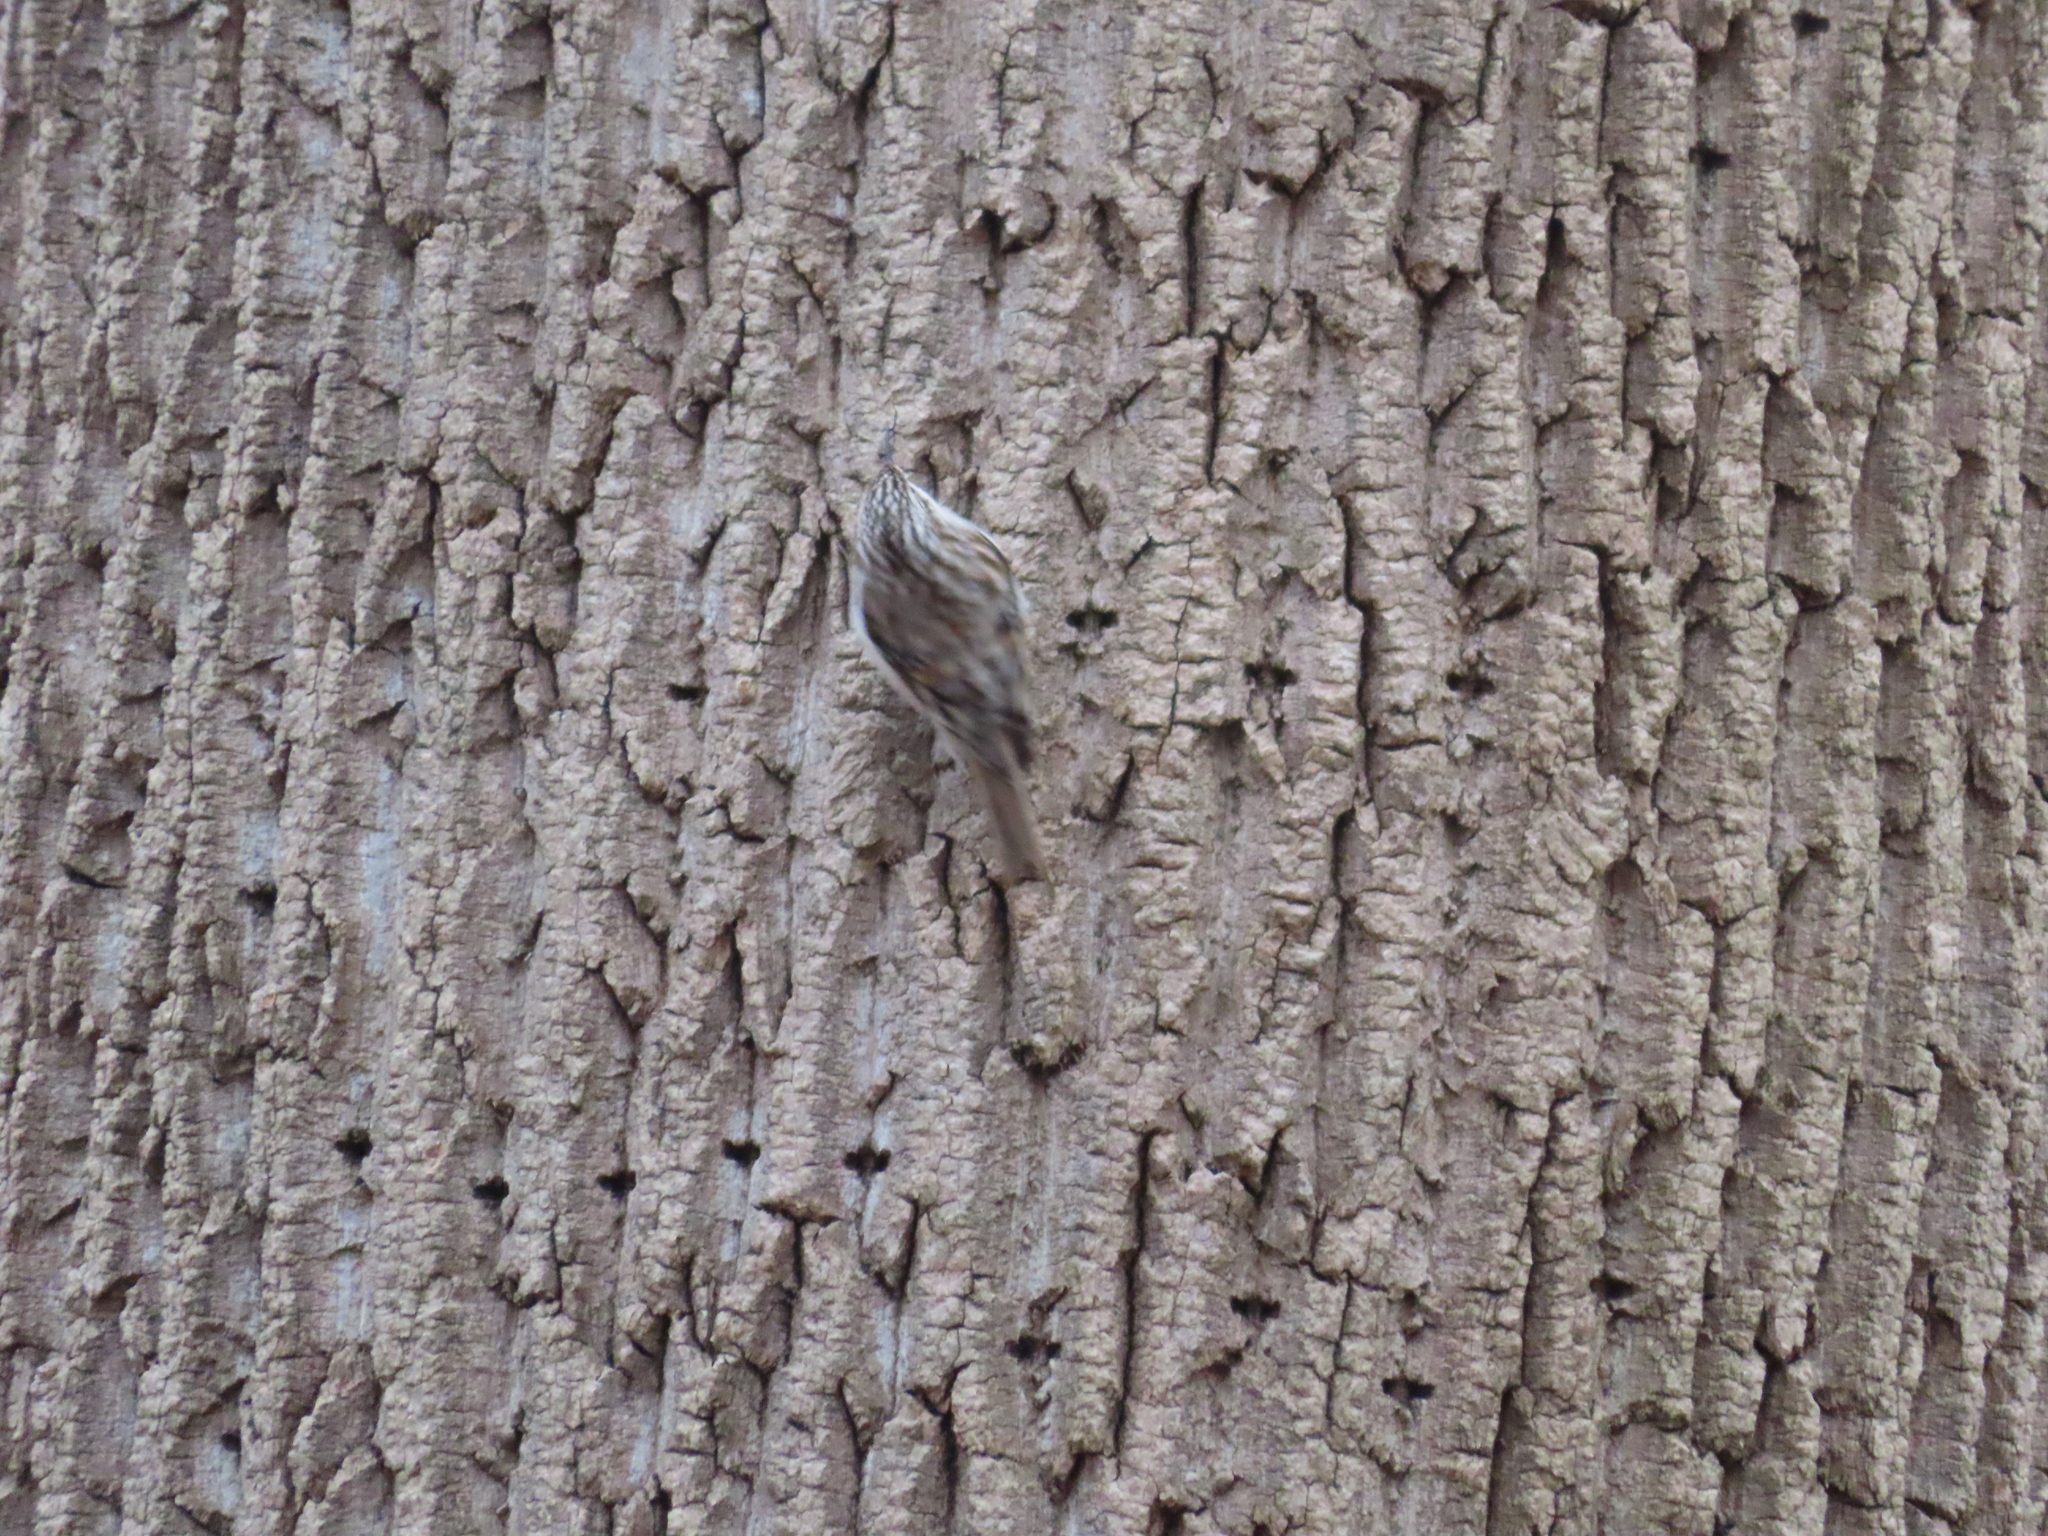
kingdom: Animalia
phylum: Chordata
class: Aves
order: Passeriformes
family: Certhiidae
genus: Certhia
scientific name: Certhia americana
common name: Brown creeper
